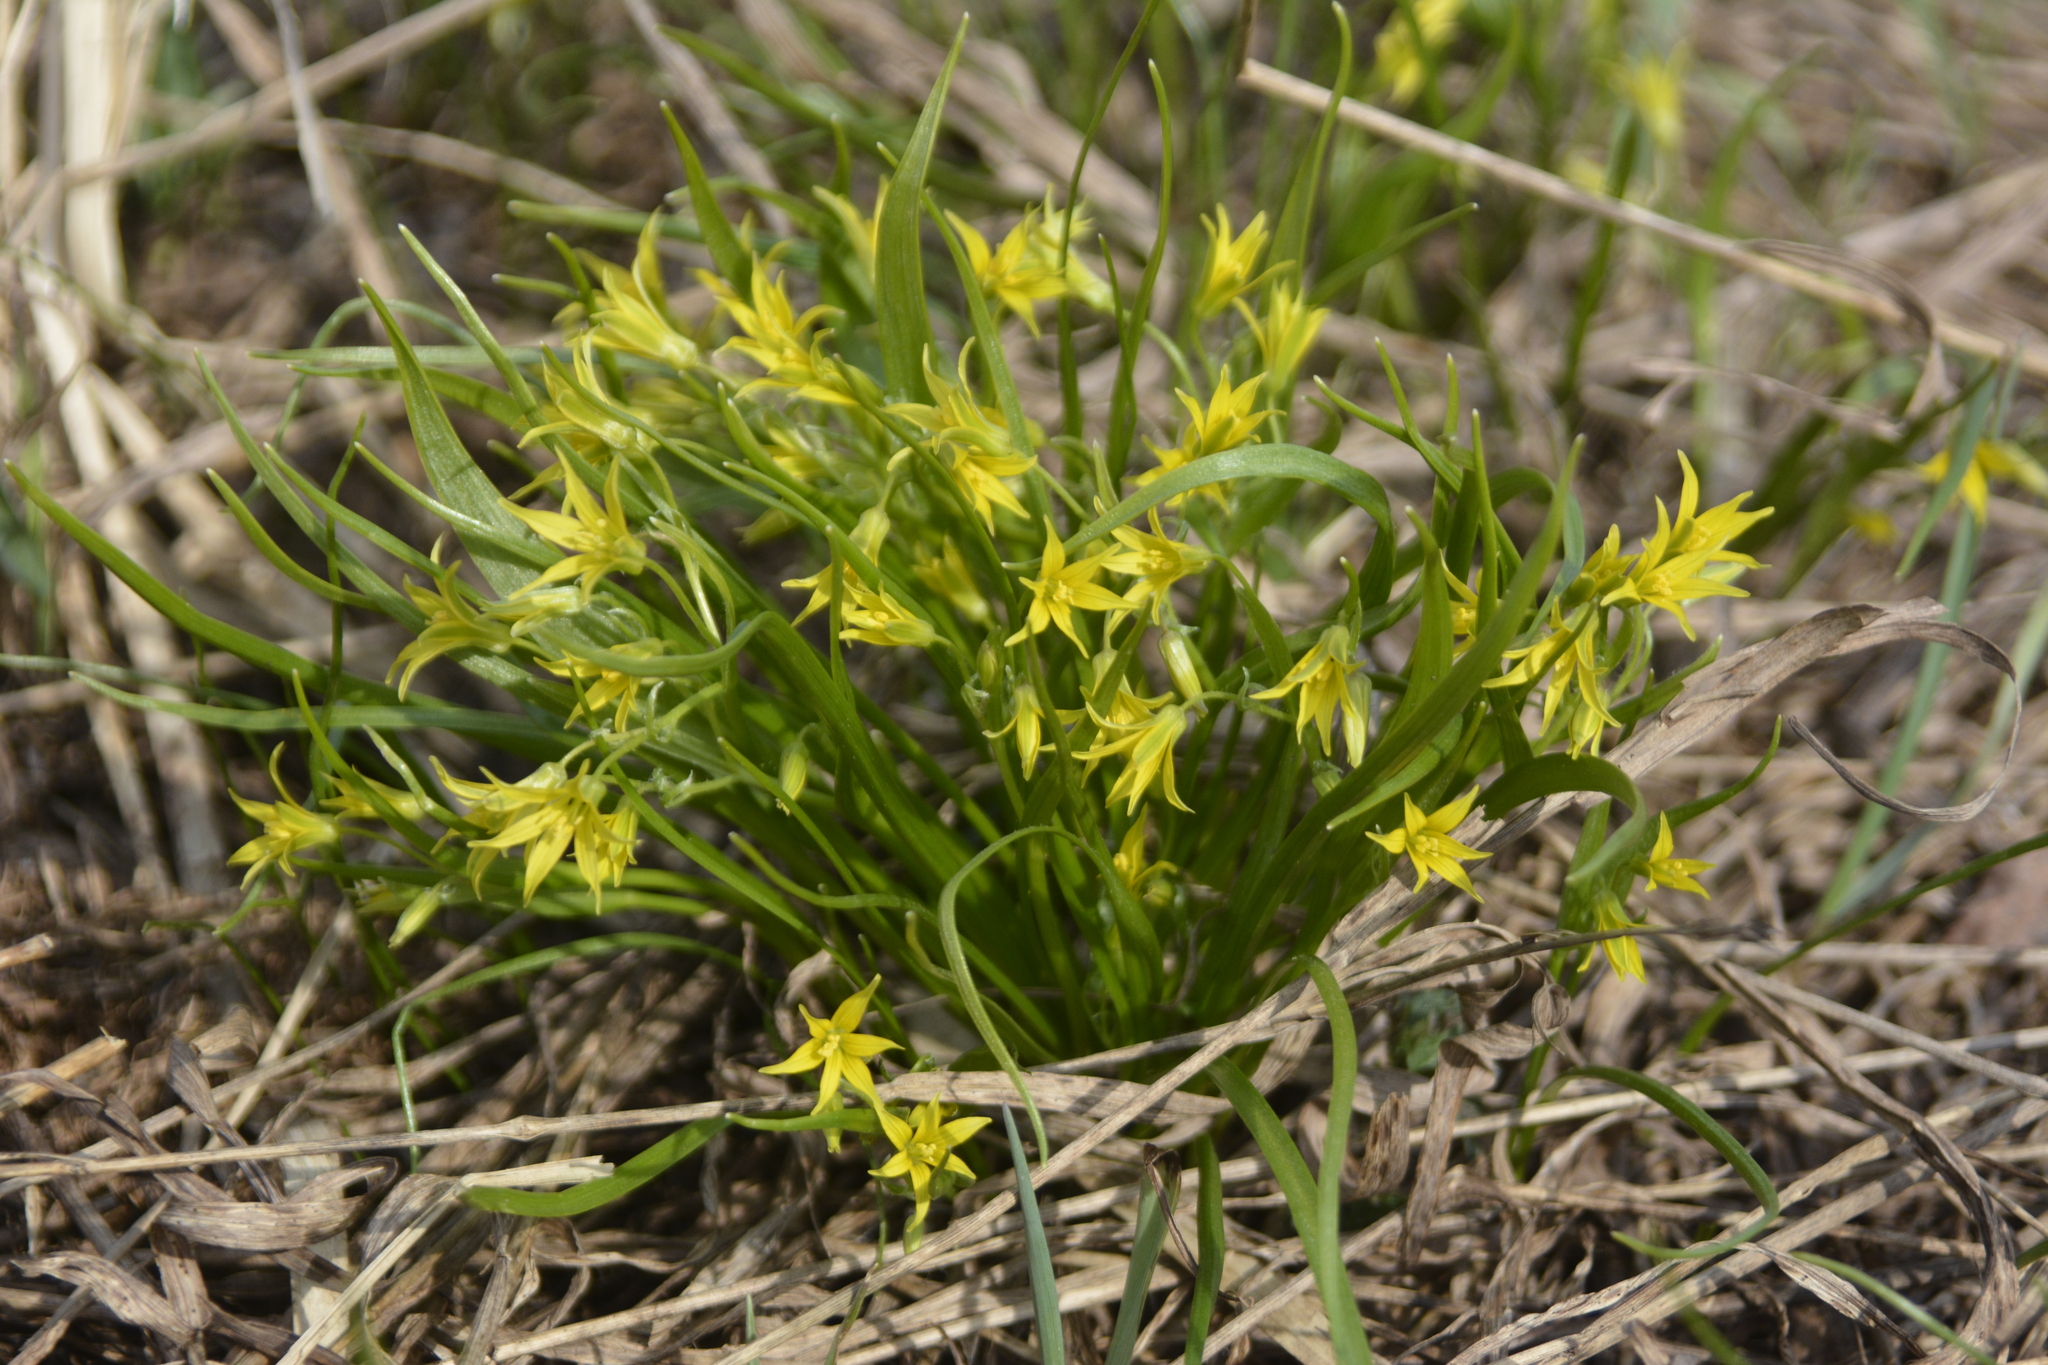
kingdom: Plantae
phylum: Tracheophyta
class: Liliopsida
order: Liliales
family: Liliaceae
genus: Gagea
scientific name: Gagea minima
